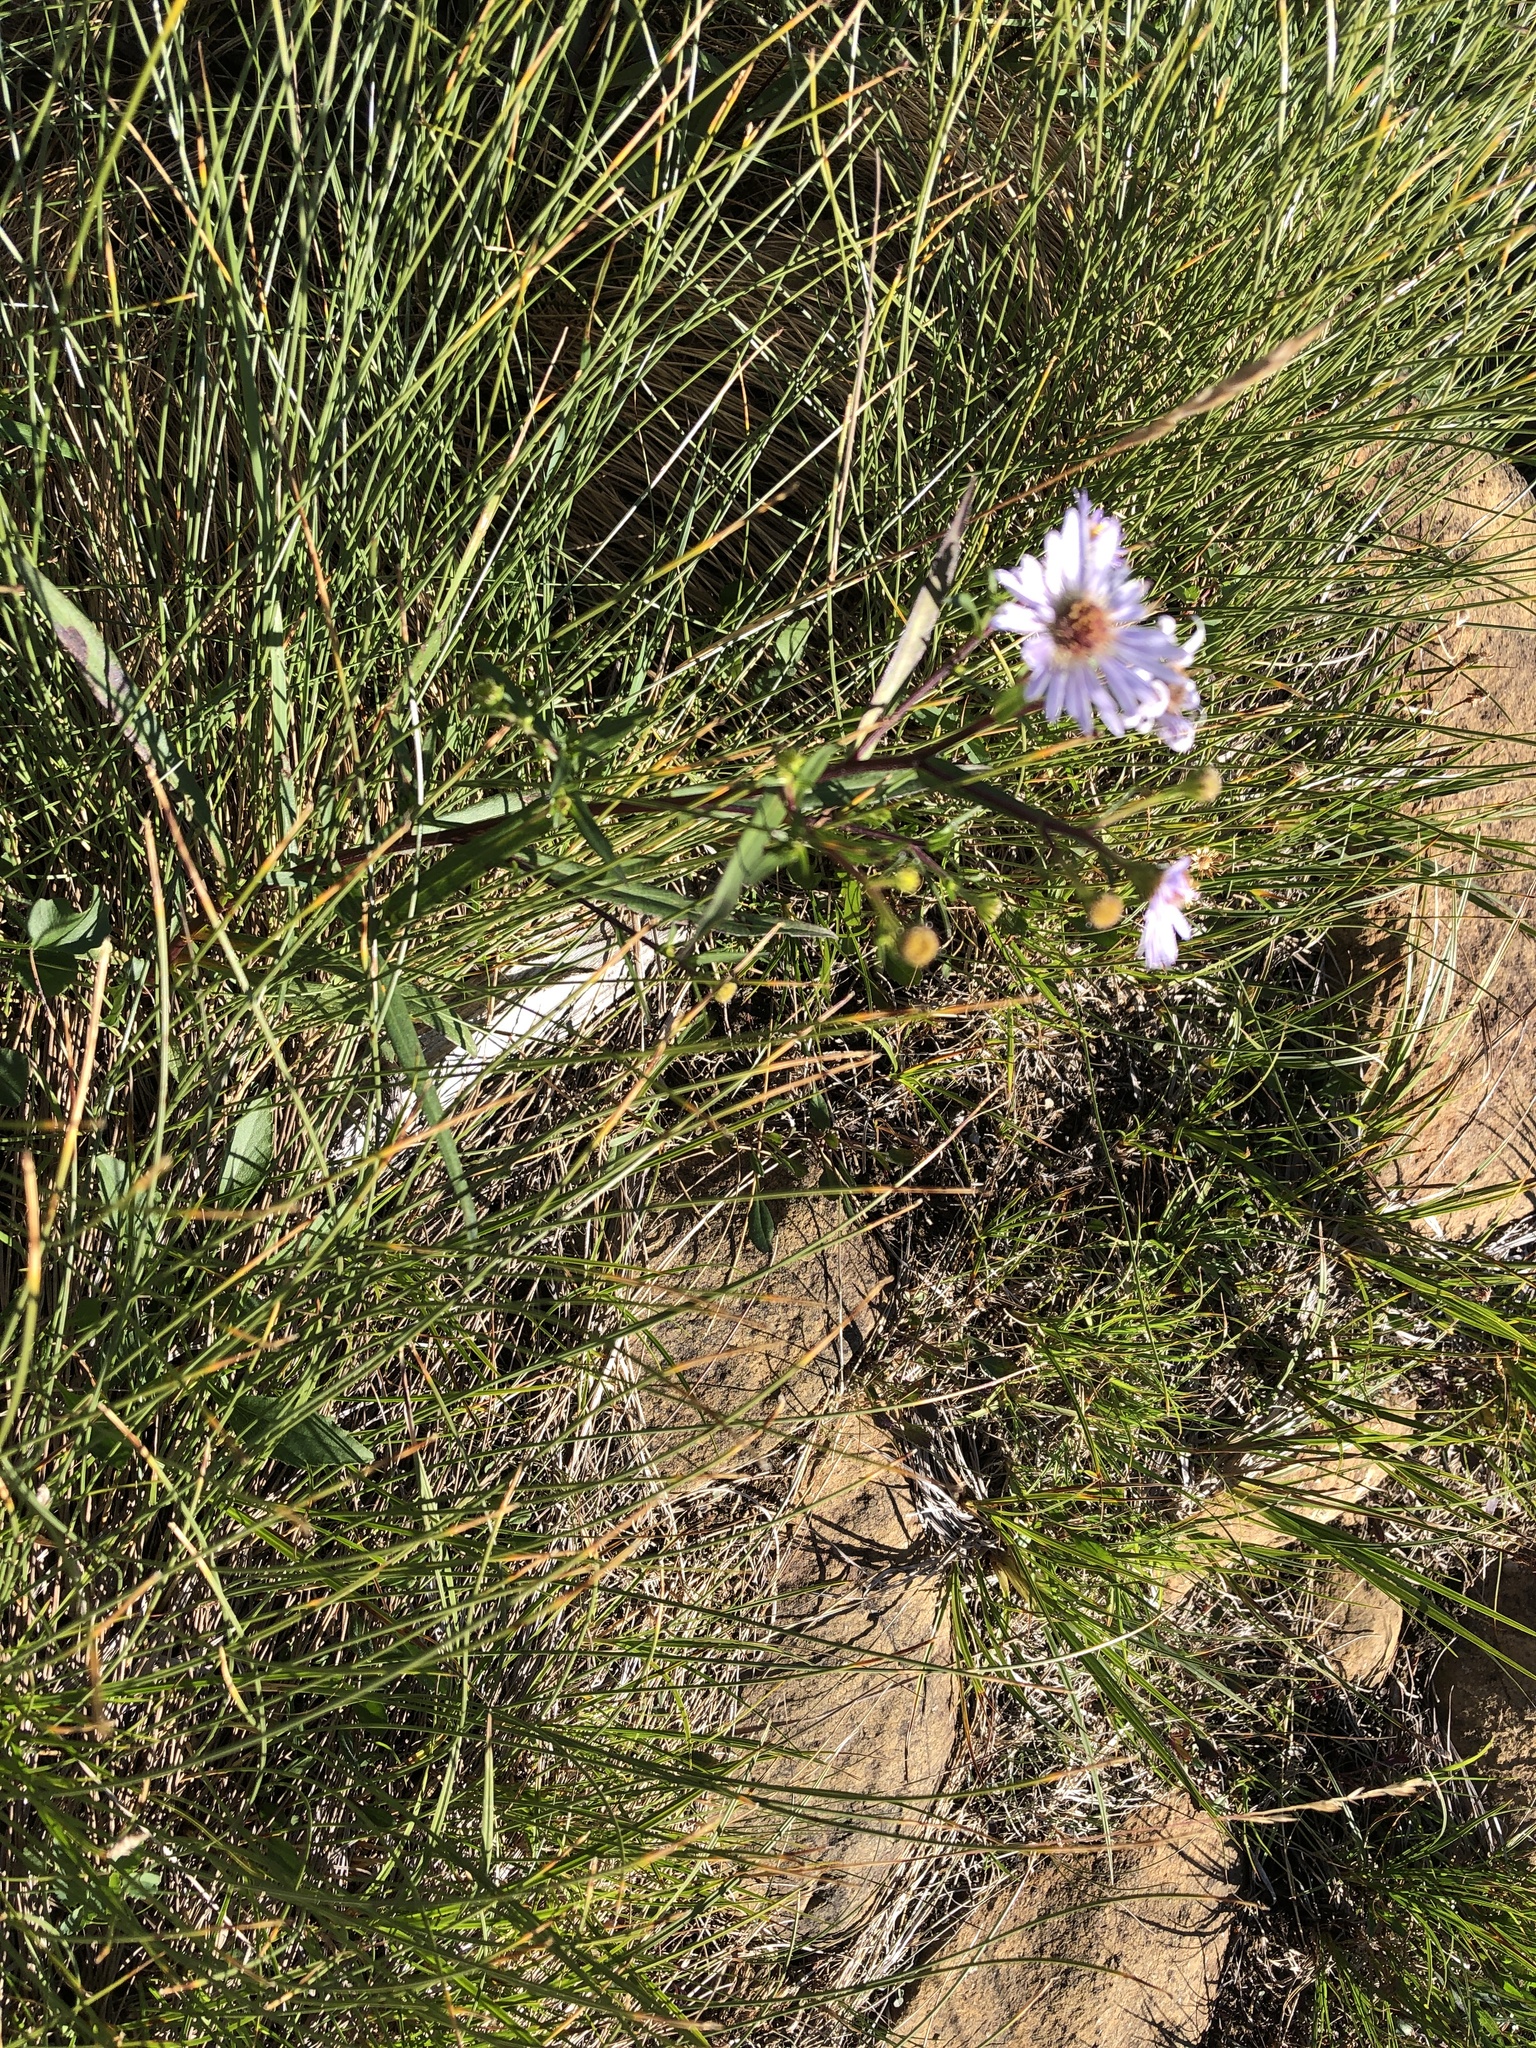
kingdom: Plantae
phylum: Tracheophyta
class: Magnoliopsida
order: Asterales
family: Asteraceae
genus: Symphyotrichum
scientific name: Symphyotrichum novi-belgii
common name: Michaelmas daisy
